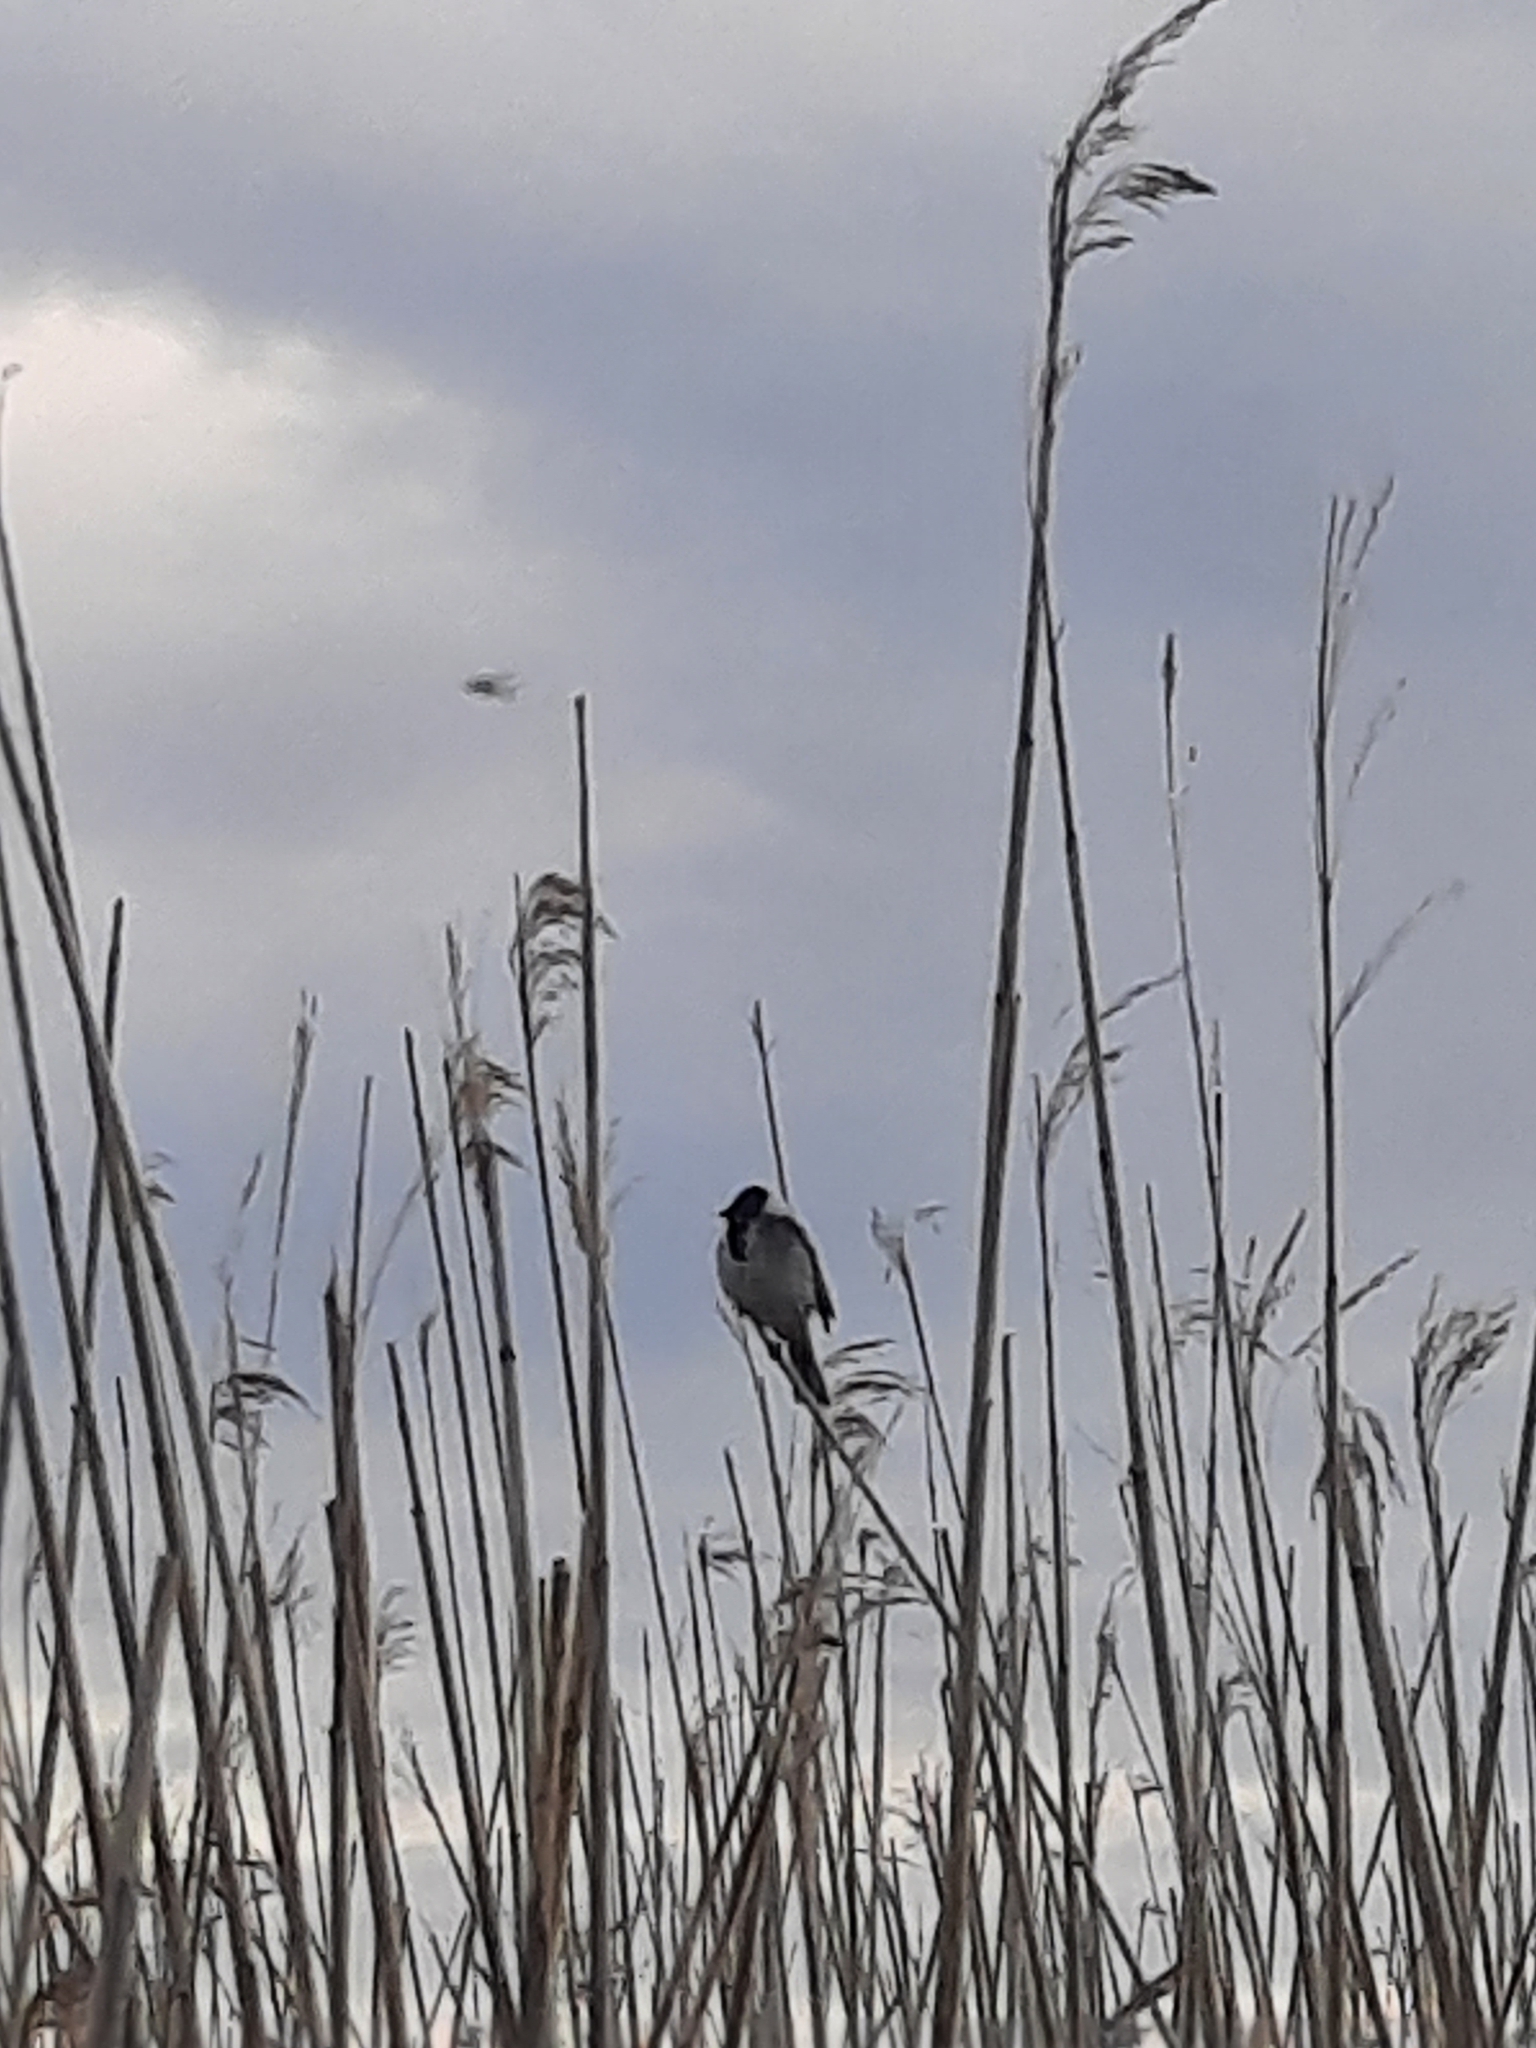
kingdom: Animalia
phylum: Chordata
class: Aves
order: Passeriformes
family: Emberizidae
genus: Emberiza
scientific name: Emberiza schoeniclus
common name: Reed bunting
